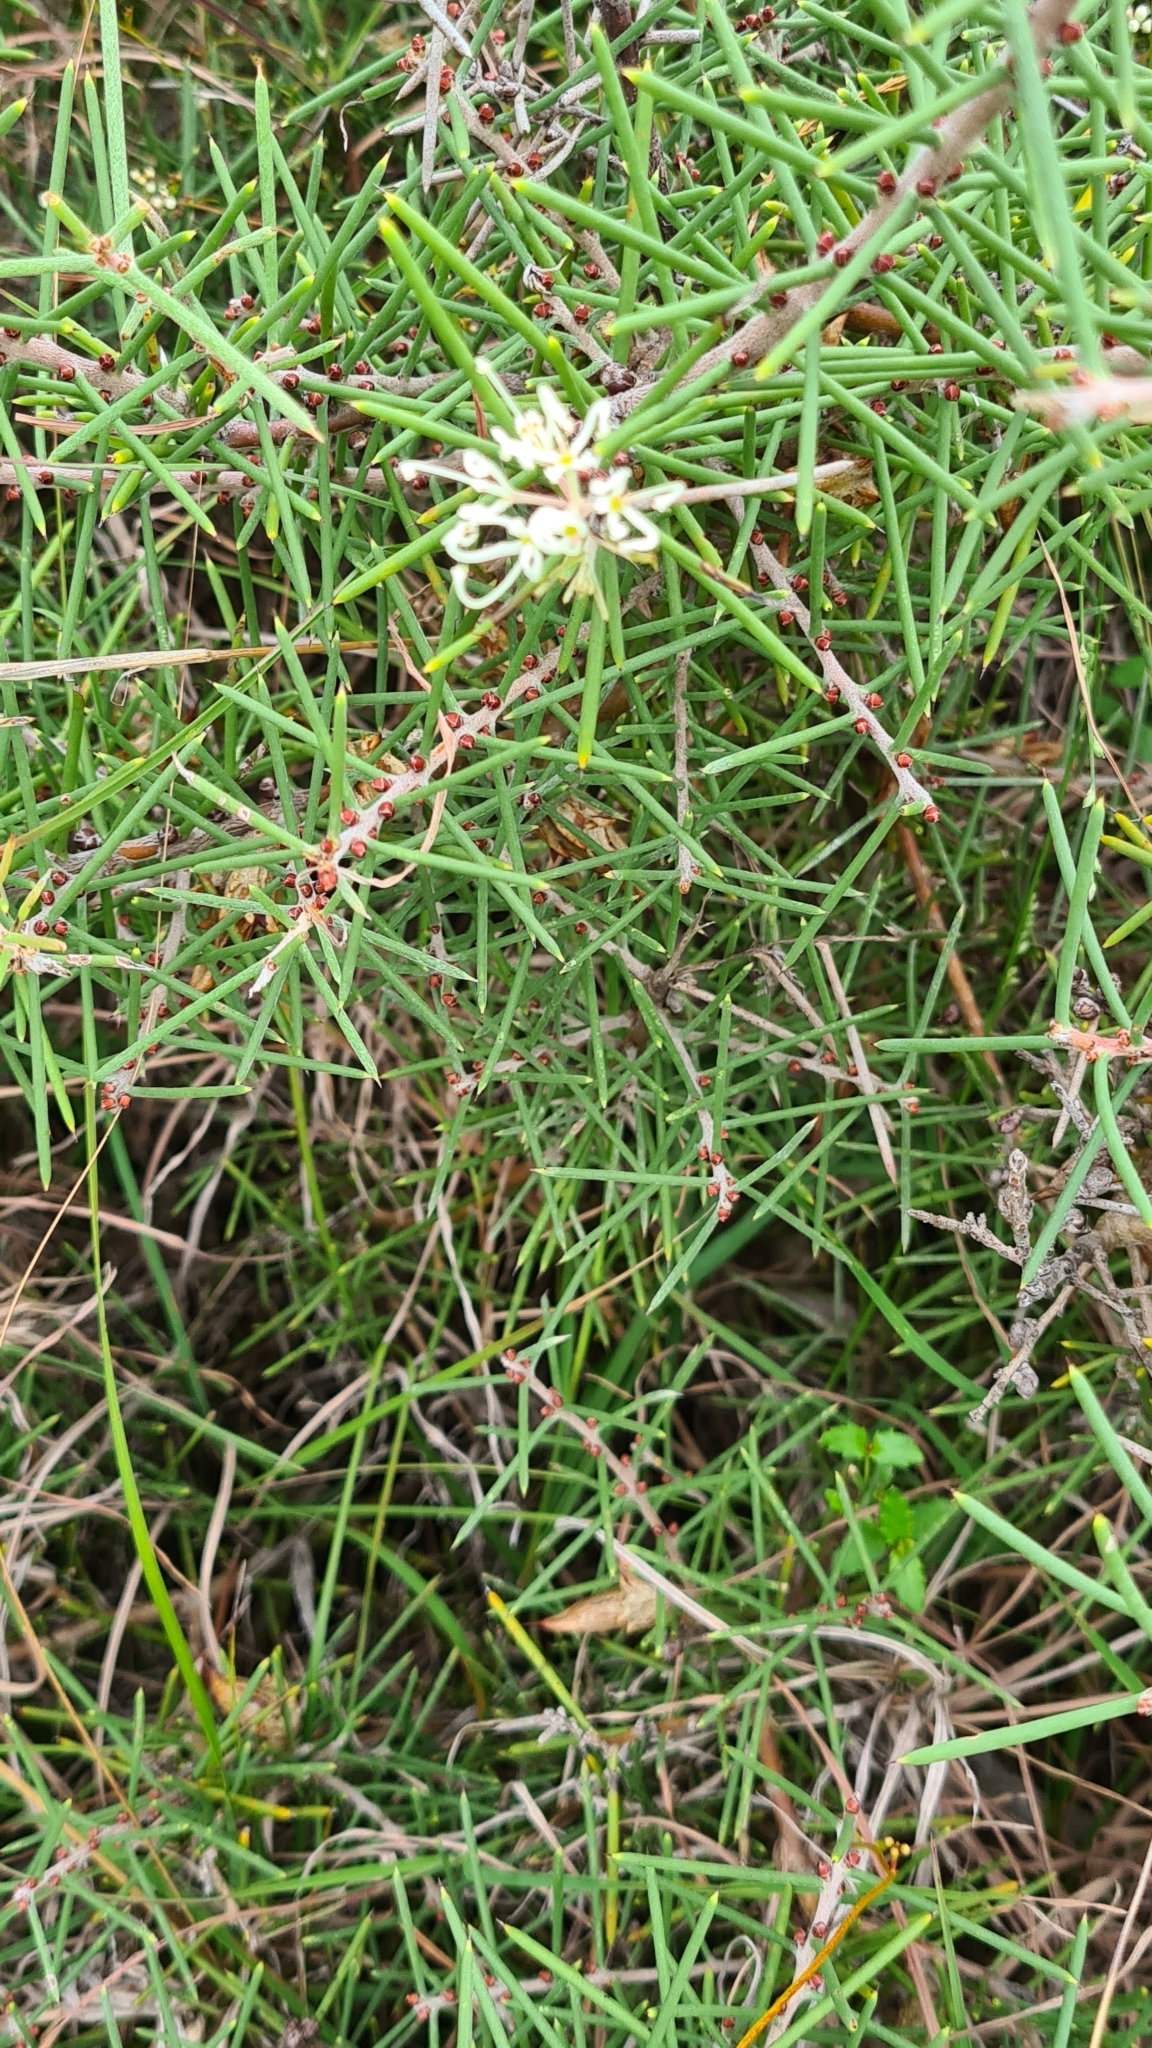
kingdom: Plantae
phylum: Tracheophyta
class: Magnoliopsida
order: Proteales
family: Proteaceae
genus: Hakea
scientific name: Hakea teretifolia
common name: Dagger hakea
